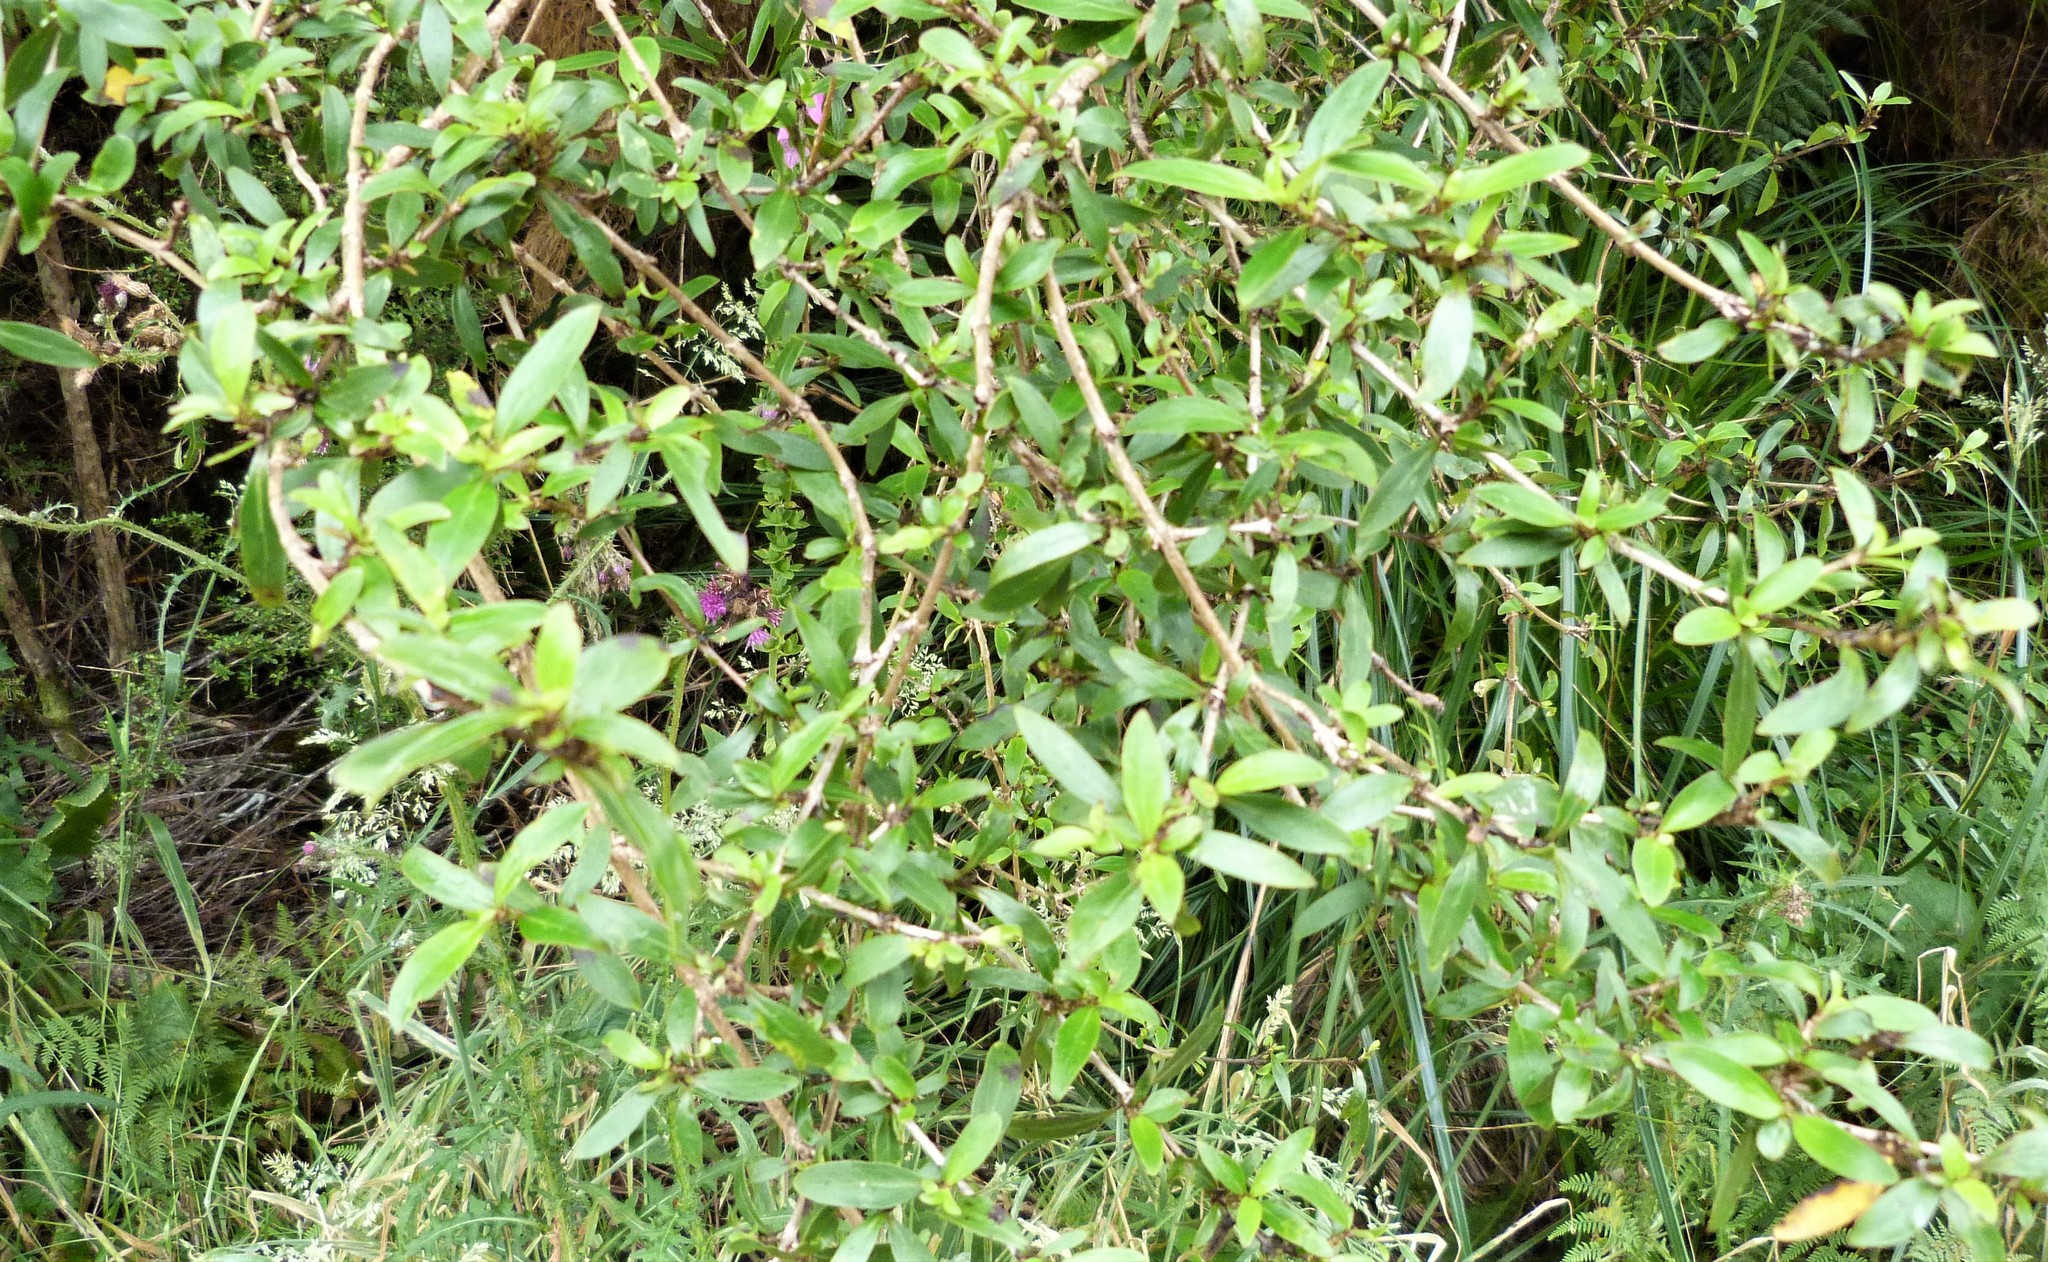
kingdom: Plantae
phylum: Tracheophyta
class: Magnoliopsida
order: Gentianales
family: Rubiaceae
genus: Coprosma
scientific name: Coprosma cunninghamii
